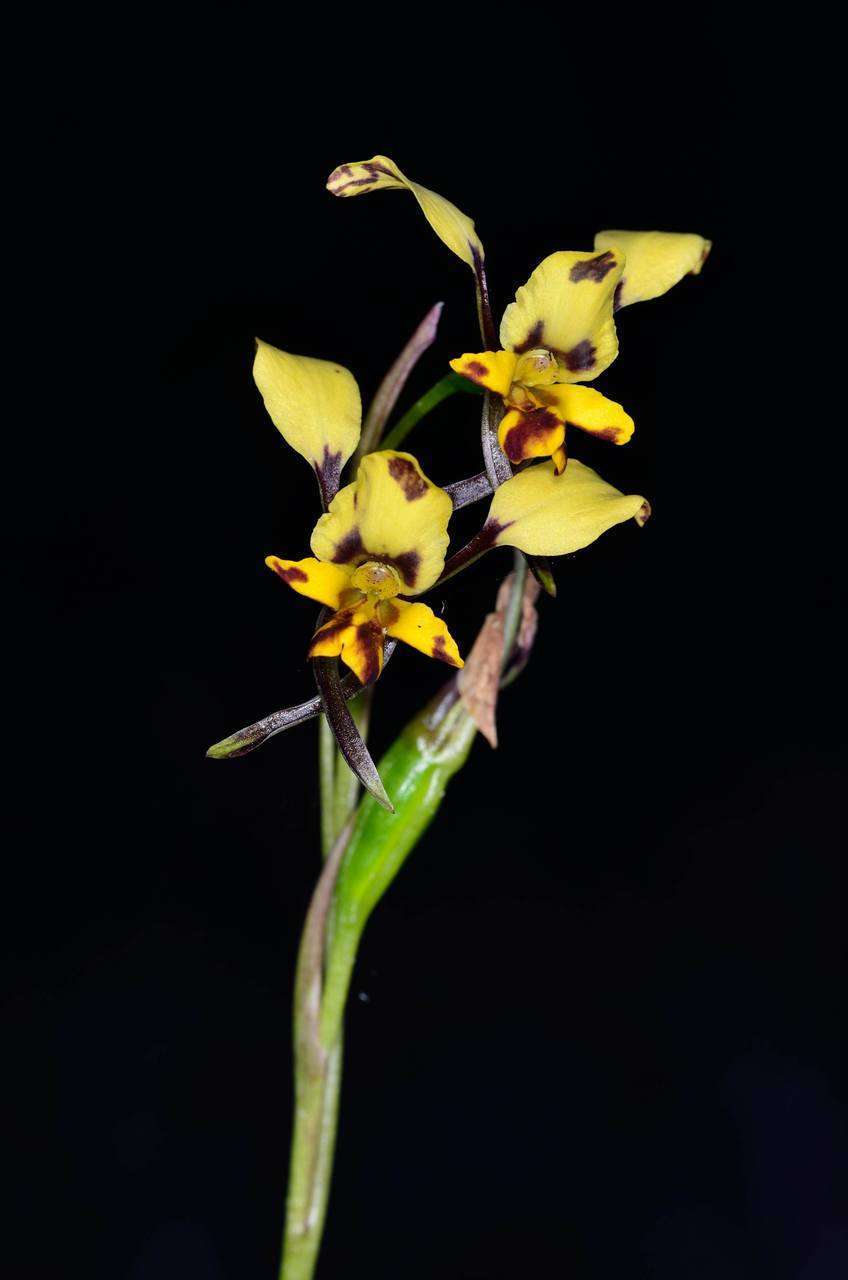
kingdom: Plantae
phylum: Tracheophyta
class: Liliopsida
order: Asparagales
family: Orchidaceae
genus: Diuris
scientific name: Diuris pardina
